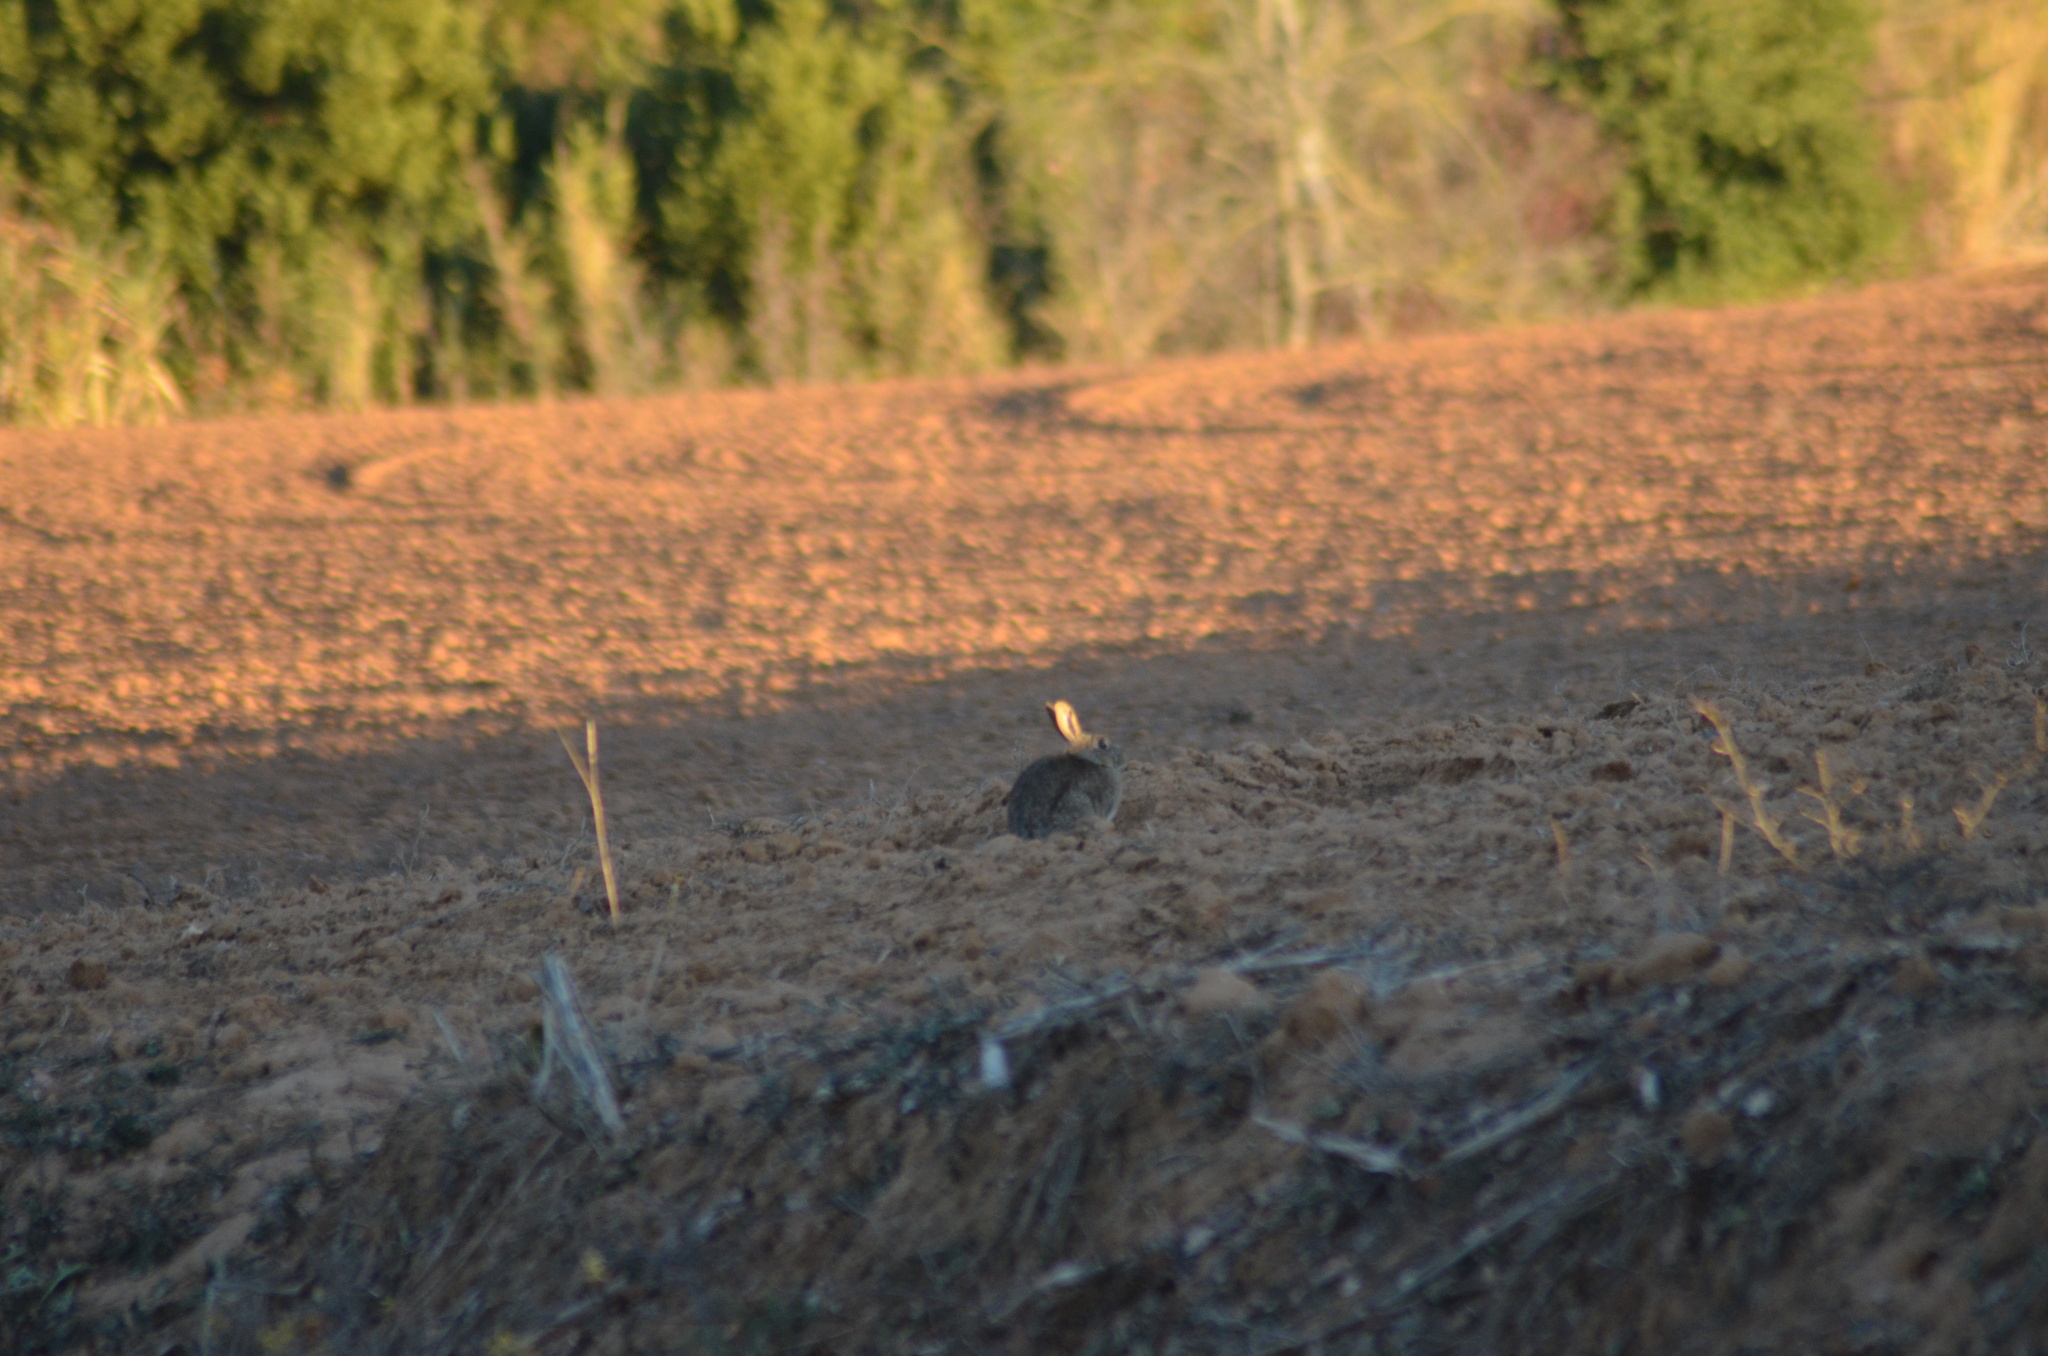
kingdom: Animalia
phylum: Chordata
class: Mammalia
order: Lagomorpha
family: Leporidae
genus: Oryctolagus
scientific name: Oryctolagus cuniculus
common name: European rabbit
